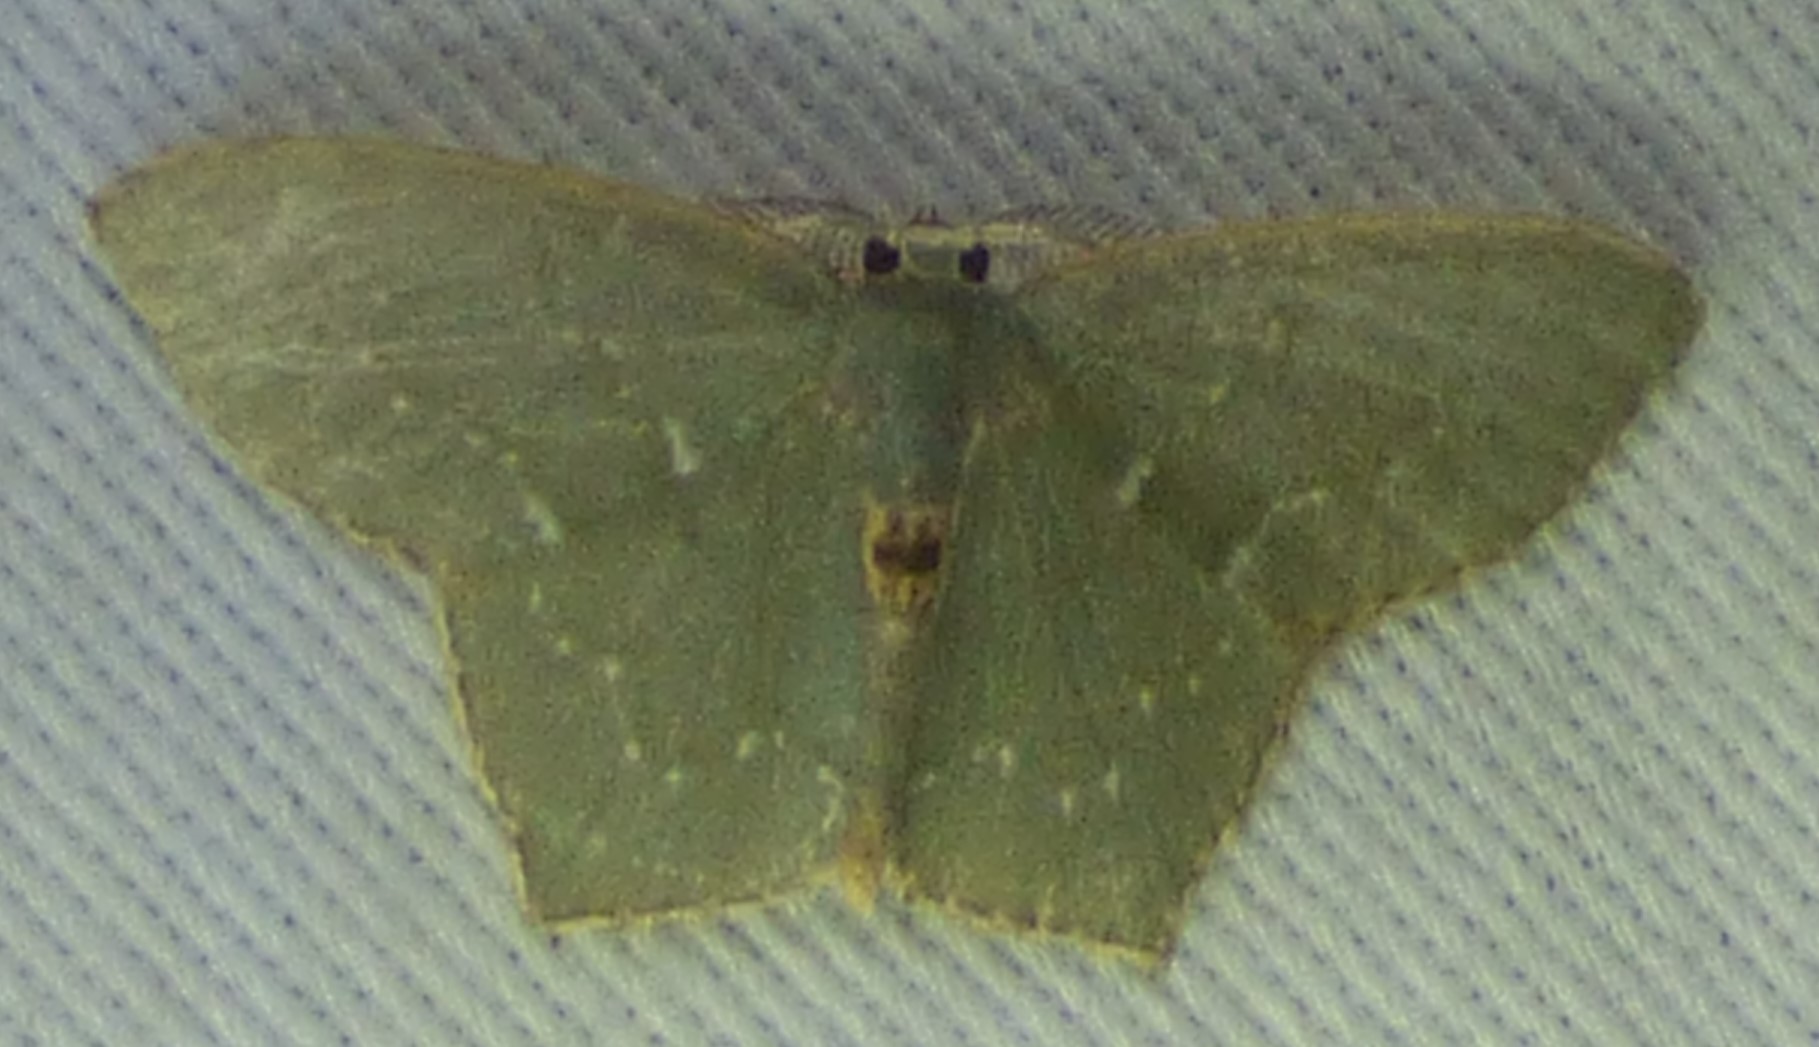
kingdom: Animalia
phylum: Arthropoda
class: Insecta
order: Lepidoptera
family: Geometridae
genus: Chloropteryx
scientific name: Chloropteryx tepperaria
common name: Angle winged emerald moth
